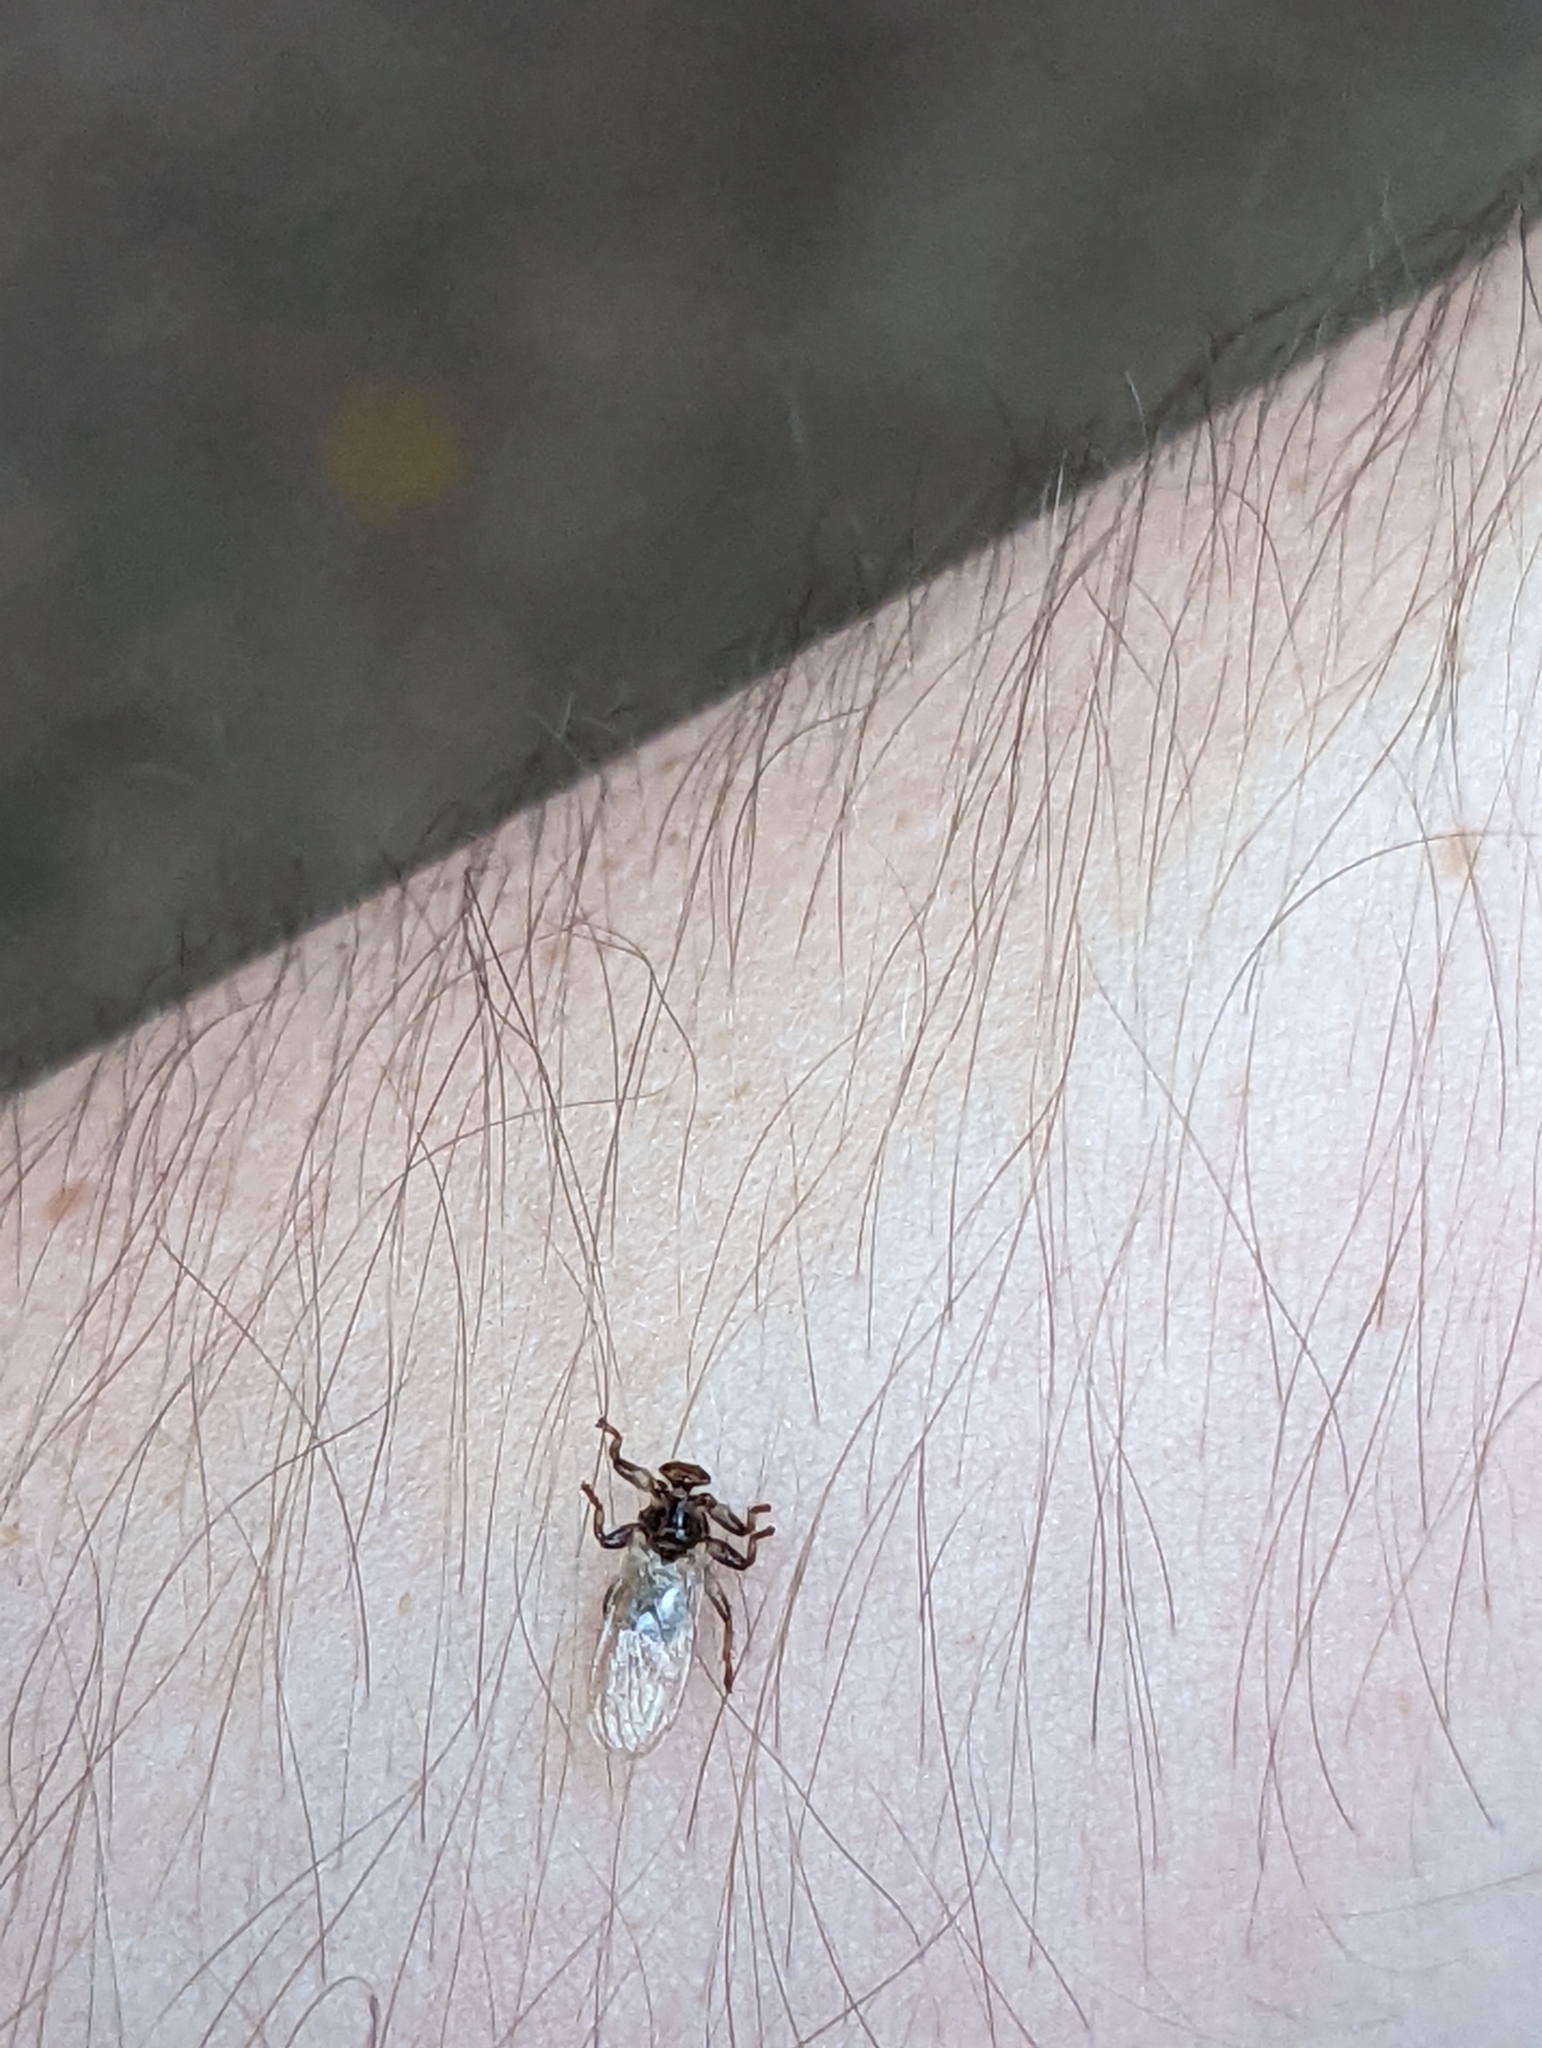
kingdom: Animalia
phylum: Arthropoda
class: Insecta
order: Diptera
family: Hippoboscidae
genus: Lipoptena
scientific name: Lipoptena cervi
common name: Deer ked
